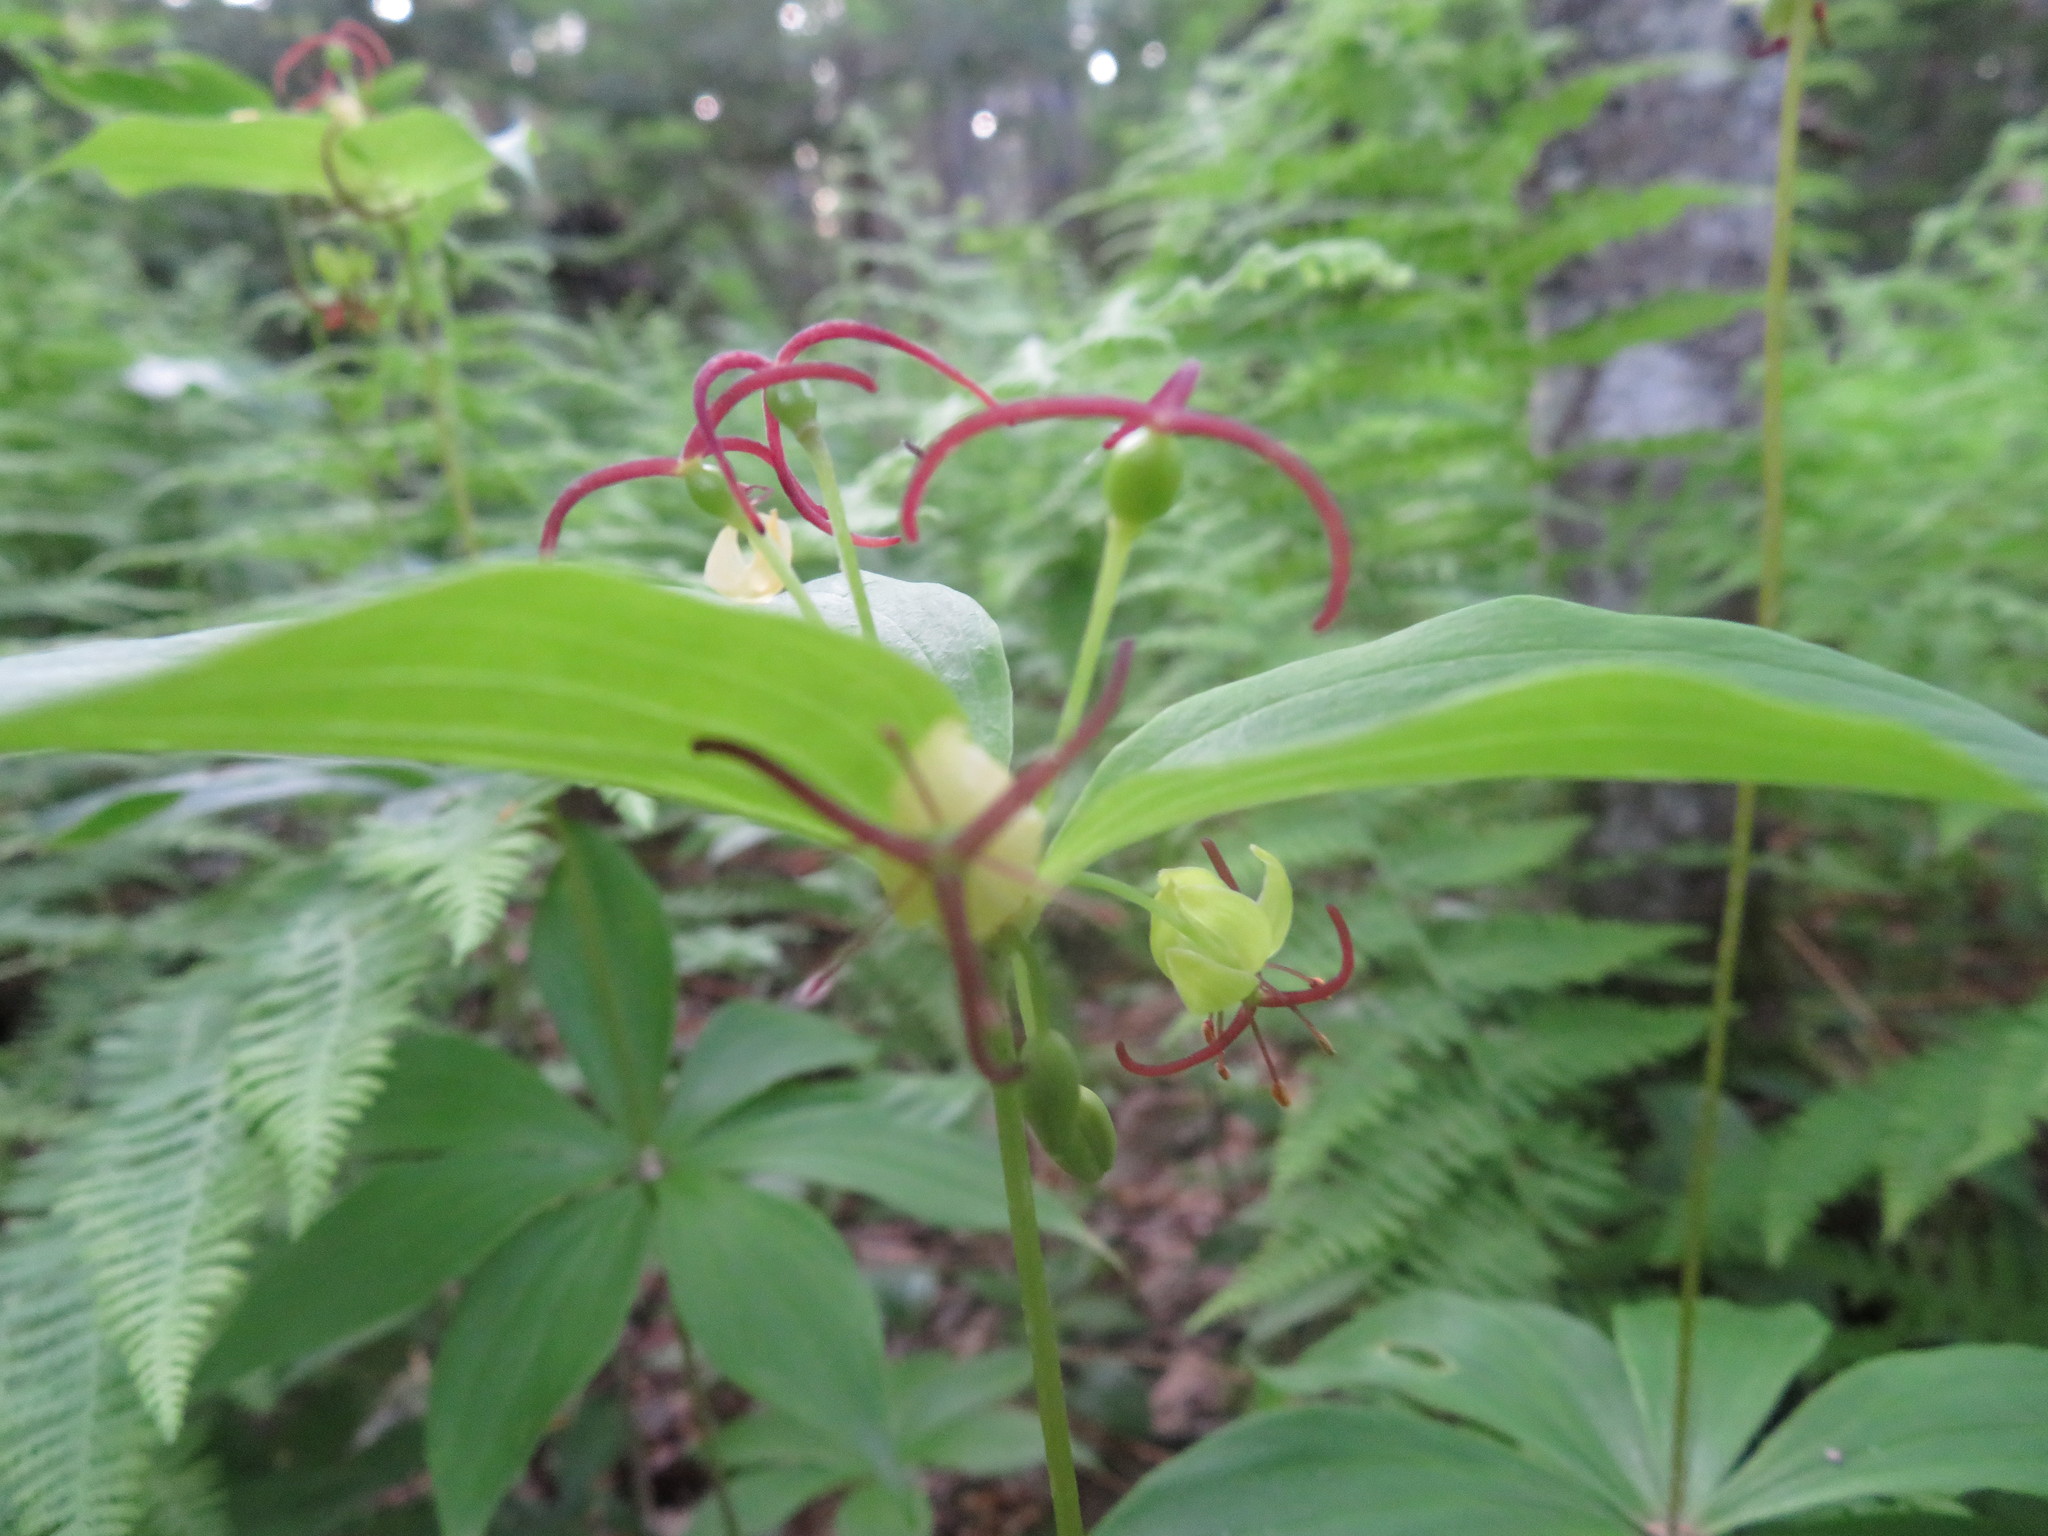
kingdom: Plantae
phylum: Tracheophyta
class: Liliopsida
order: Liliales
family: Liliaceae
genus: Medeola
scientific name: Medeola virginiana
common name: Indian cucumber-root
